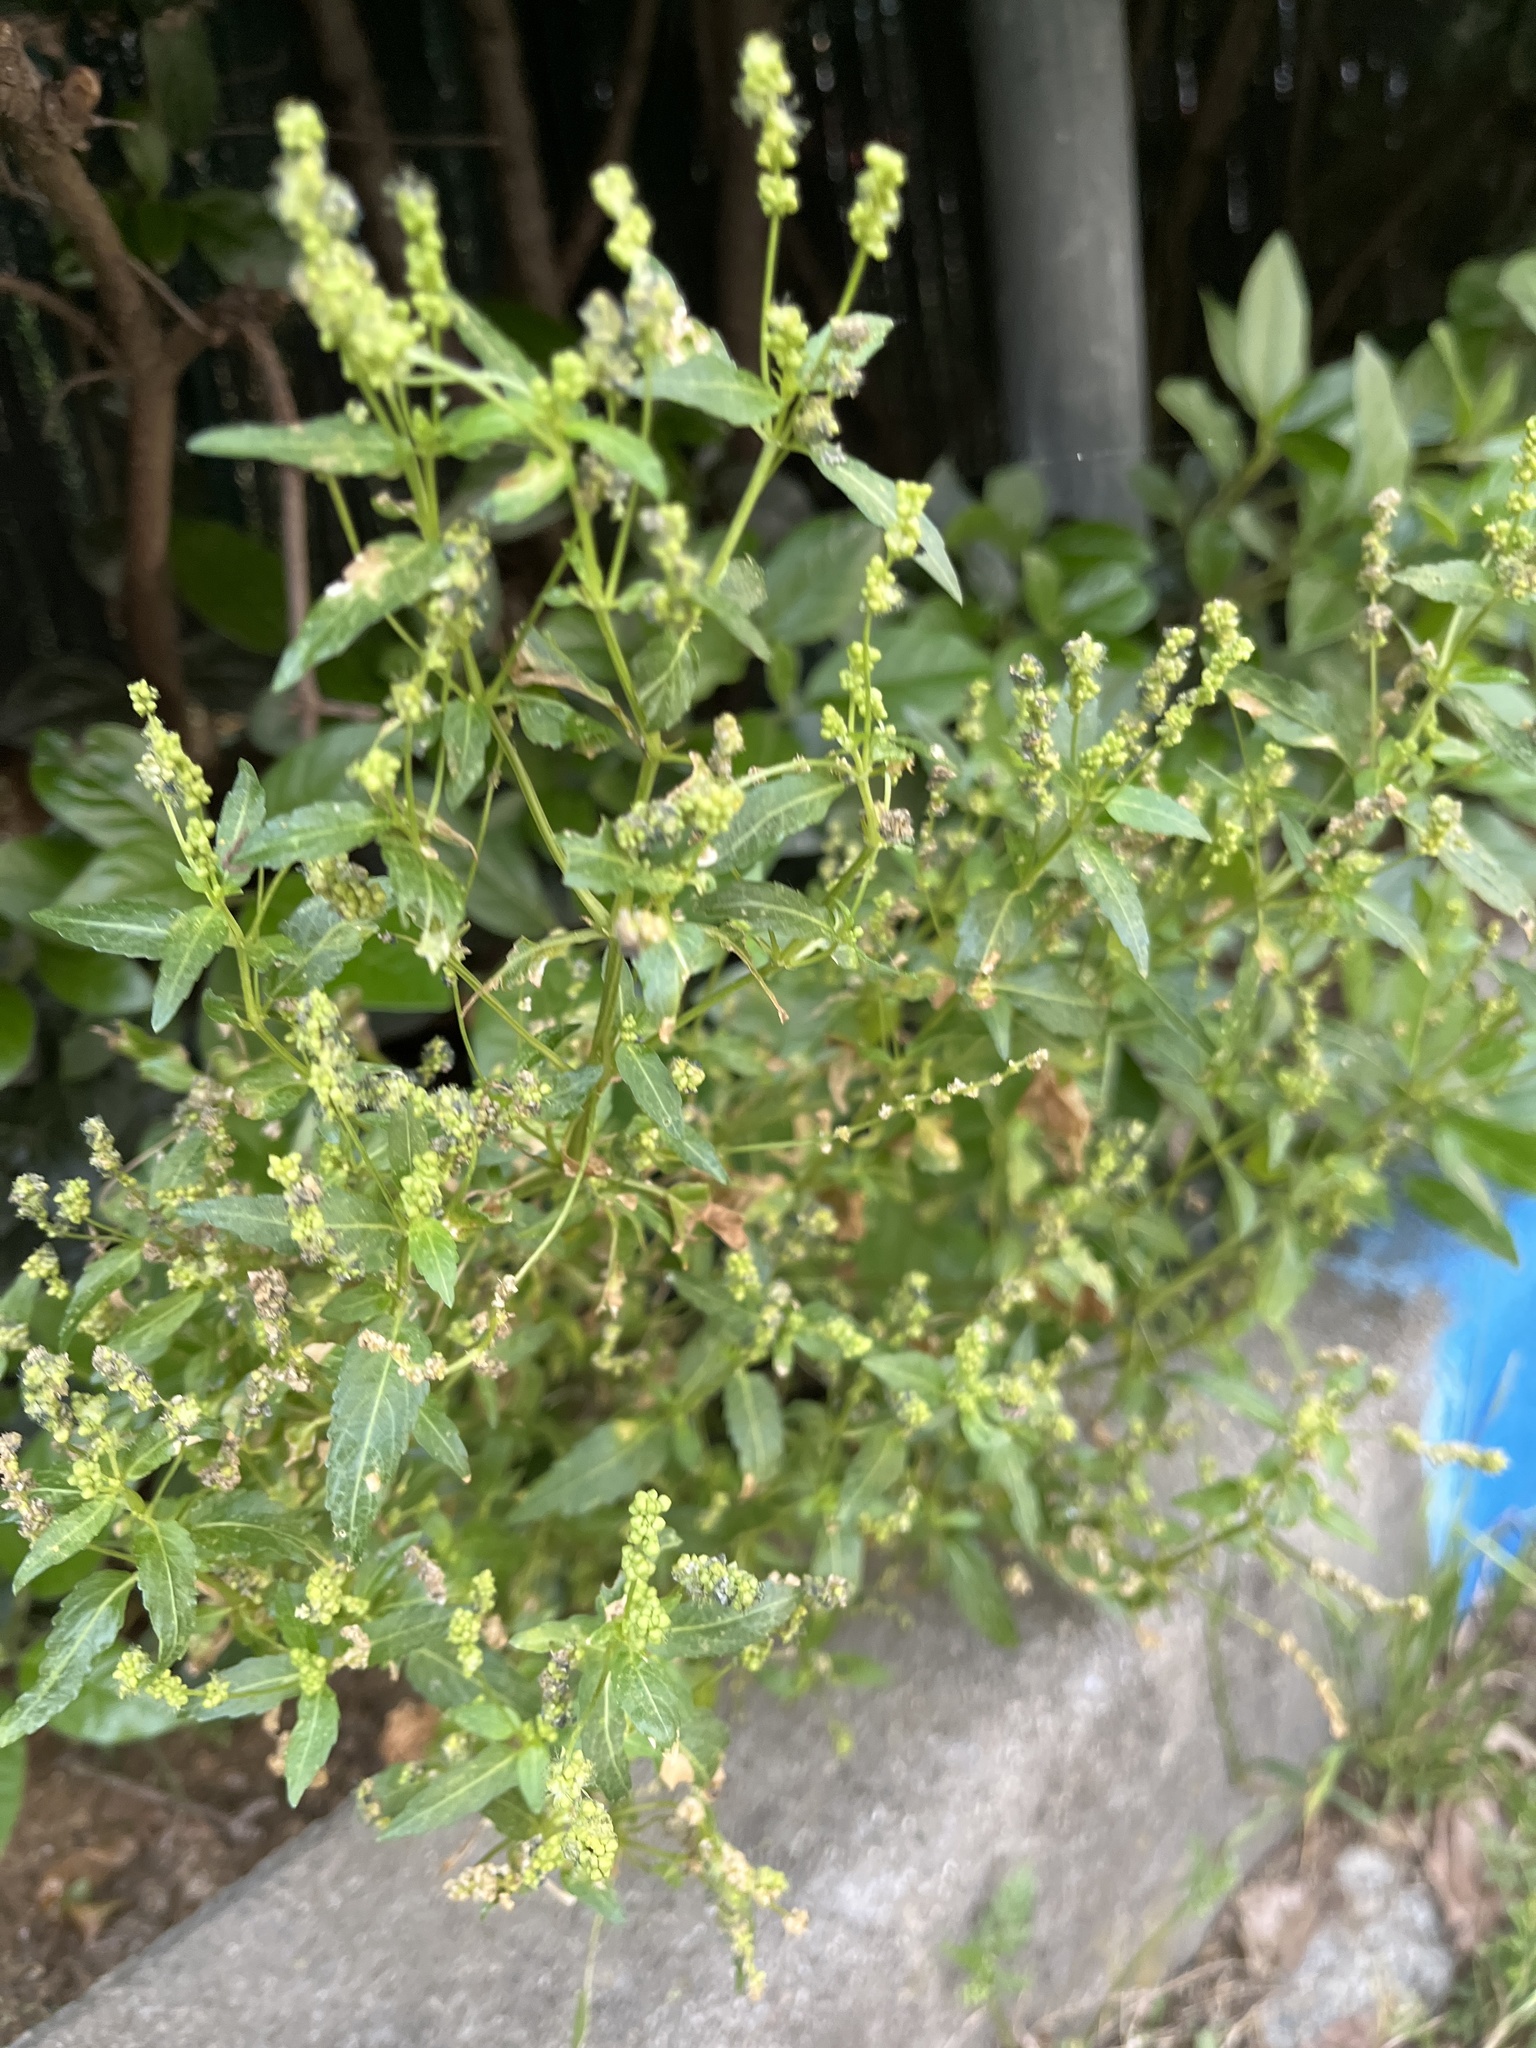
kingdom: Plantae
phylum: Tracheophyta
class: Magnoliopsida
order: Malpighiales
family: Euphorbiaceae
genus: Mercurialis
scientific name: Mercurialis annua
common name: Annual mercury
